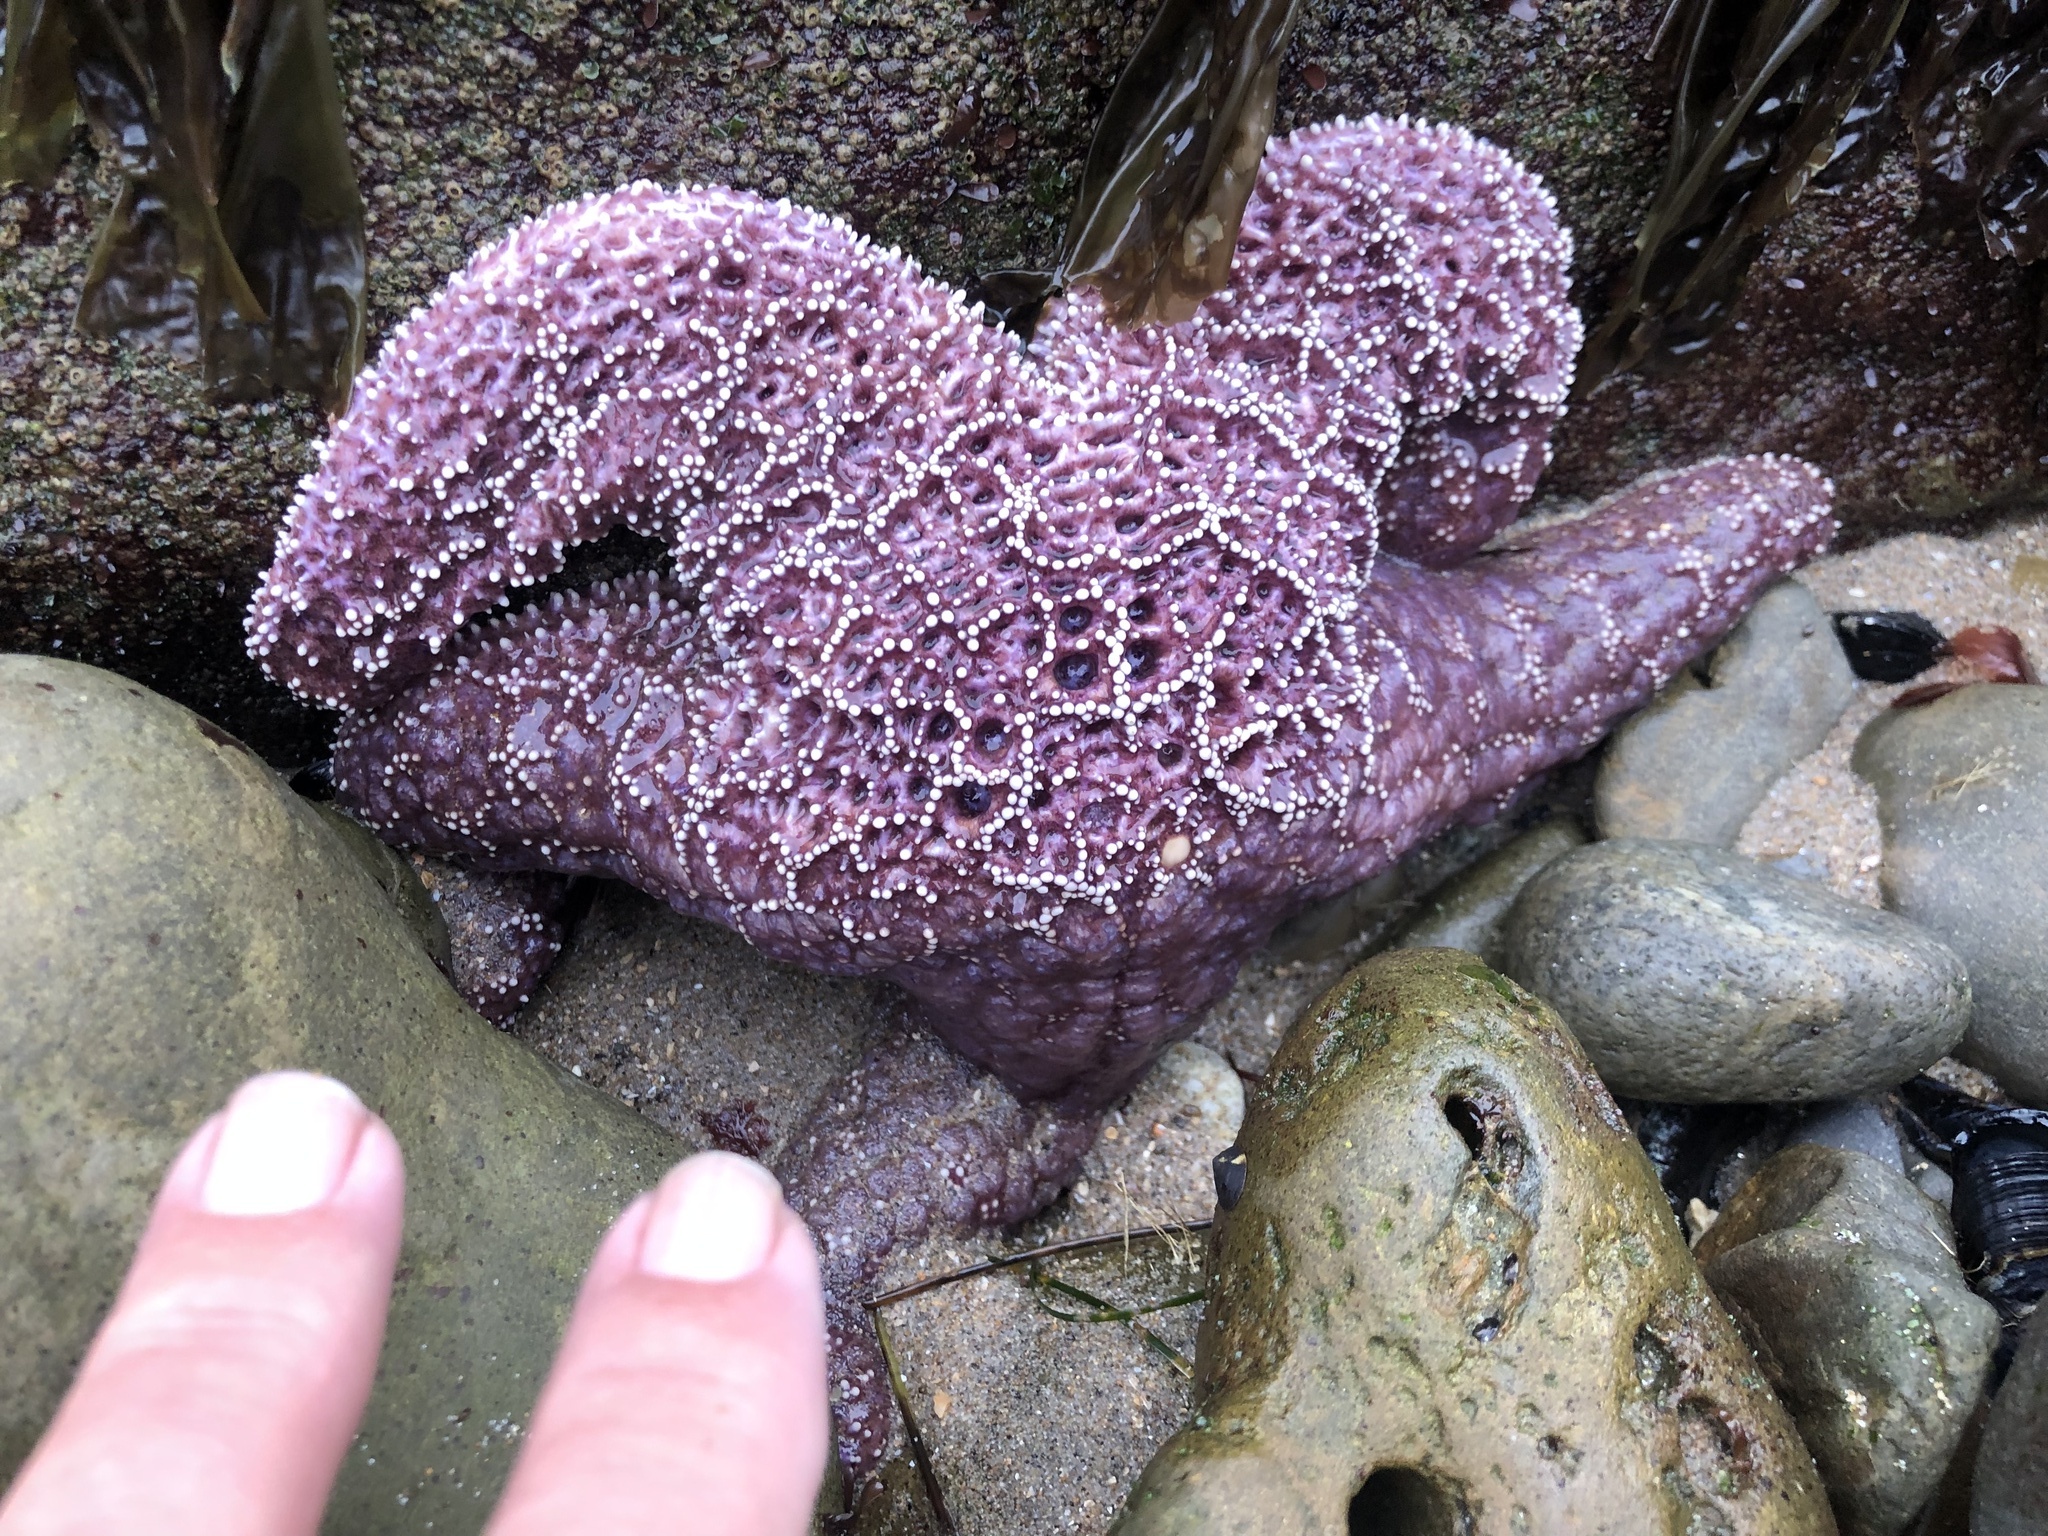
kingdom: Animalia
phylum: Echinodermata
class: Asteroidea
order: Forcipulatida
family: Asteriidae
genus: Pisaster
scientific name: Pisaster ochraceus
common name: Ochre stars
